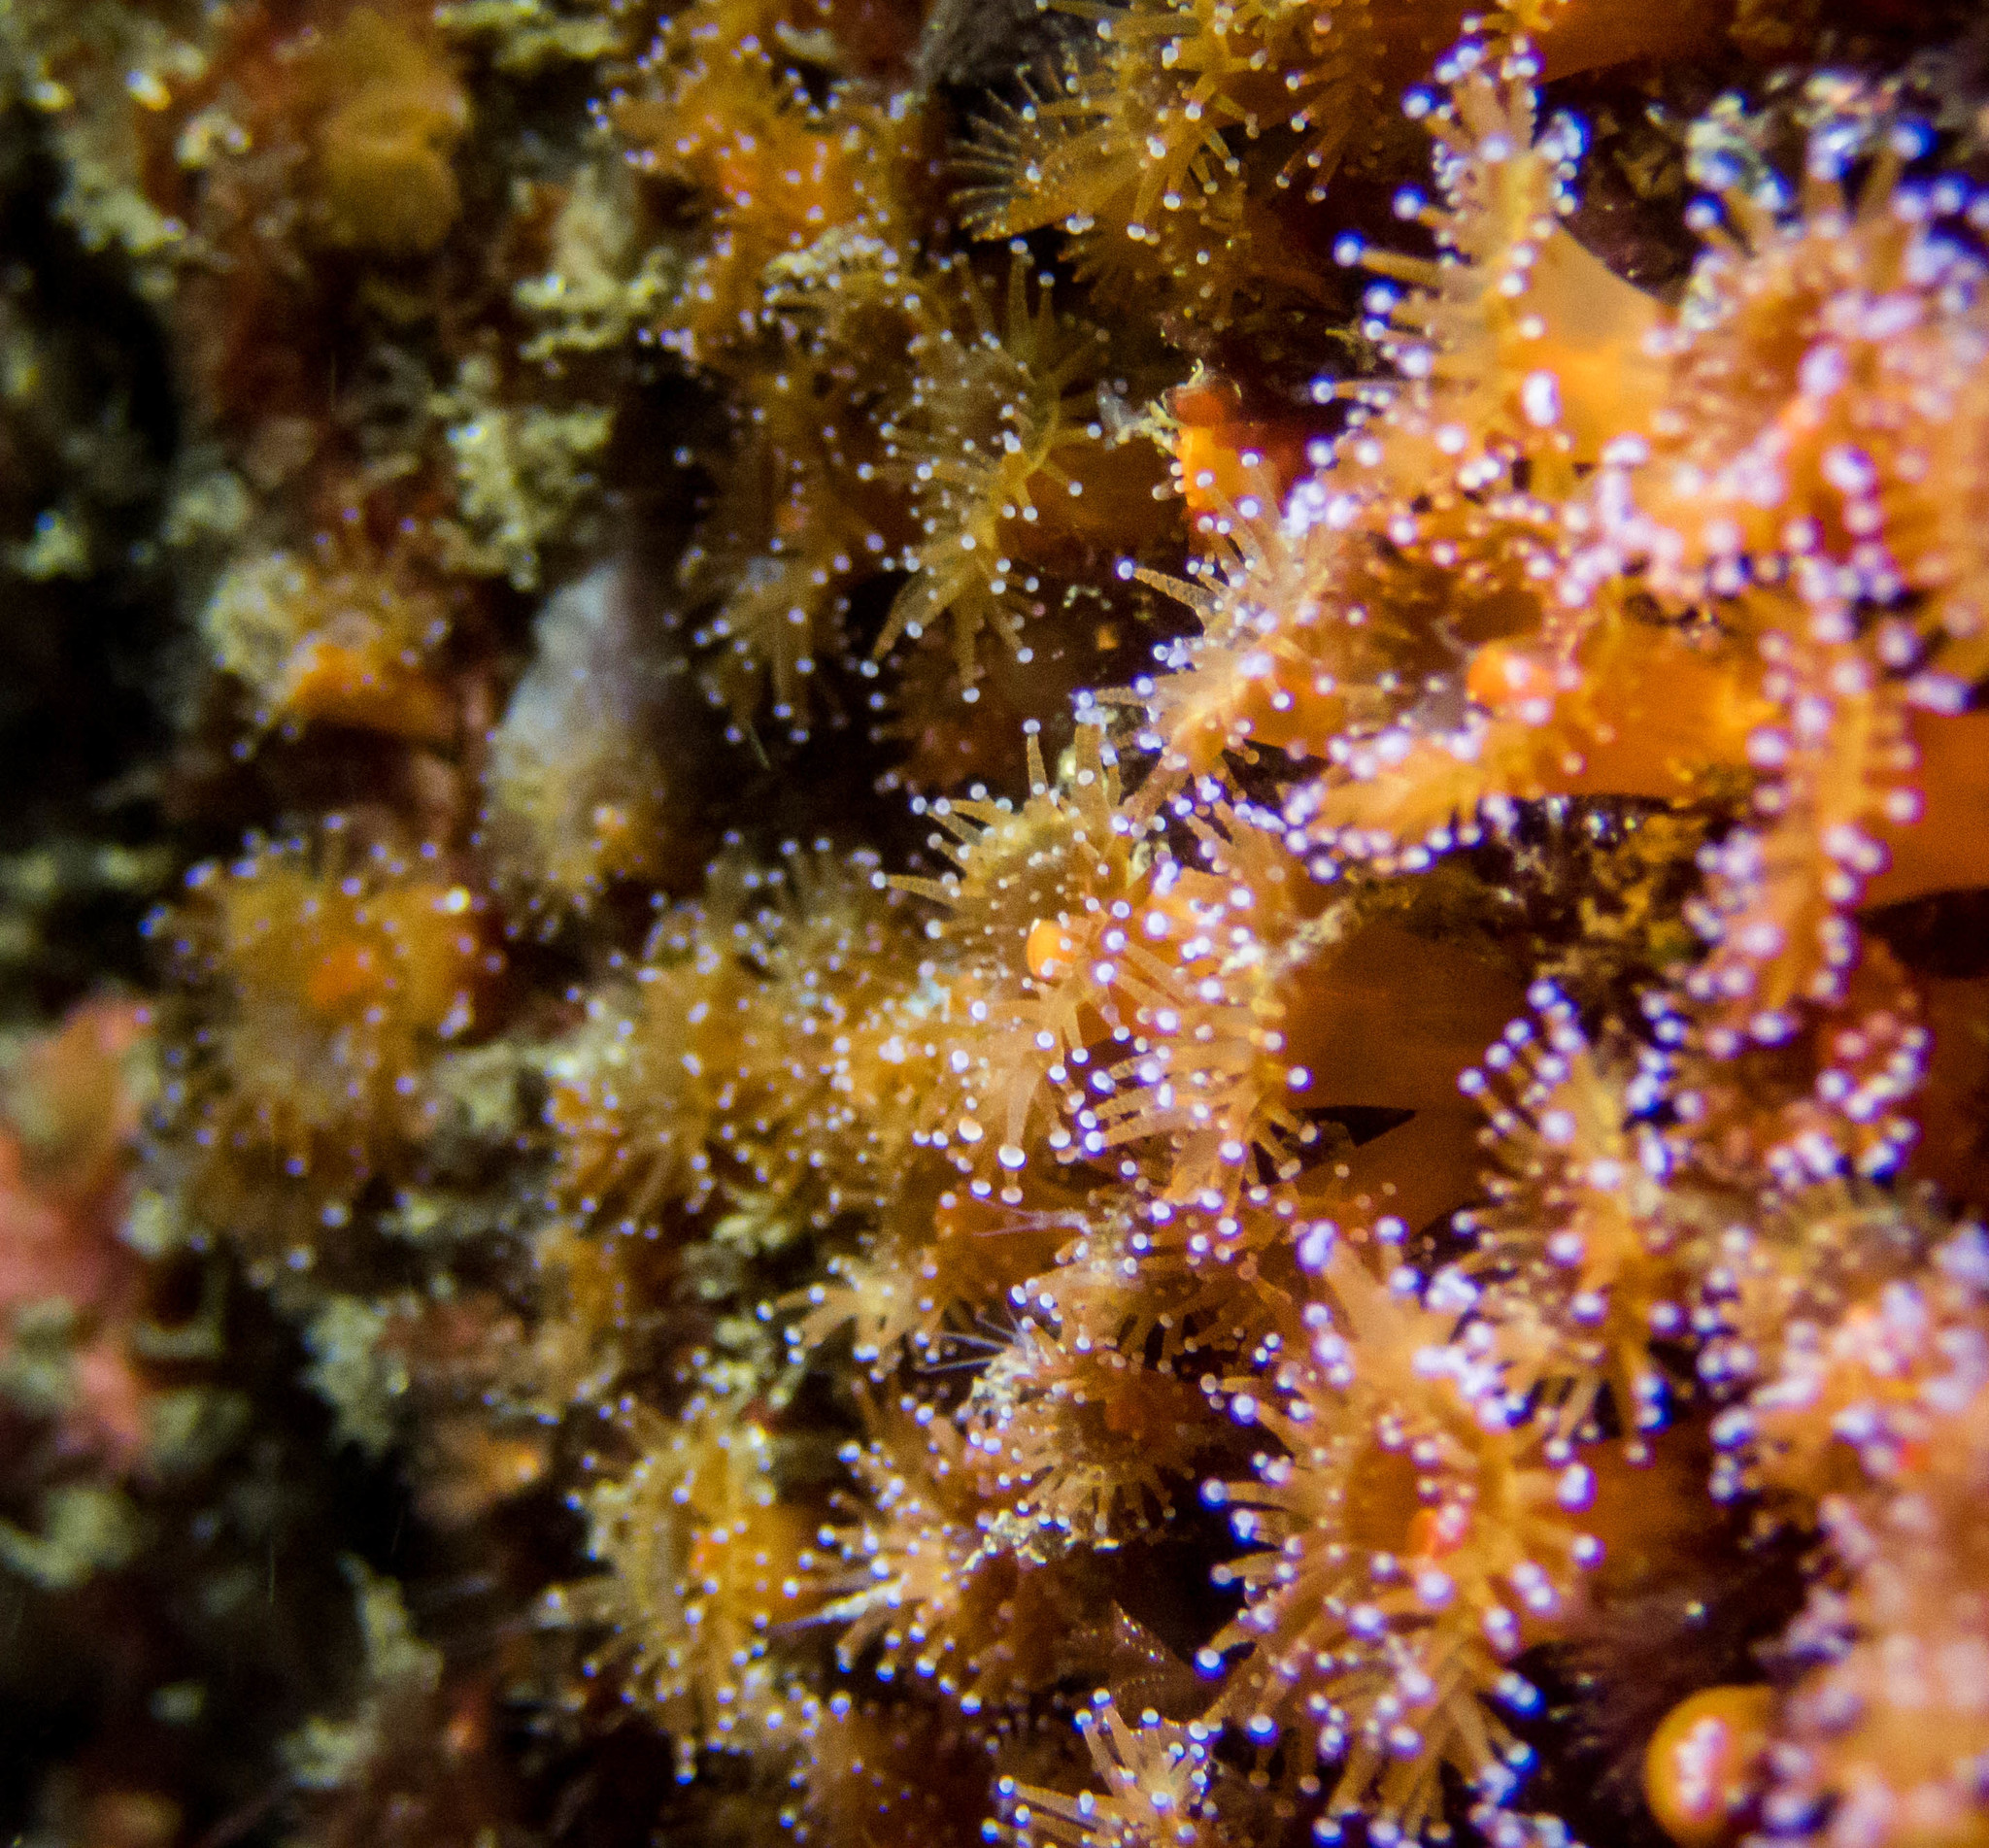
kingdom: Animalia
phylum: Cnidaria
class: Anthozoa
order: Corallimorpharia
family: Corallimorphidae
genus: Corynactis
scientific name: Corynactis australis
